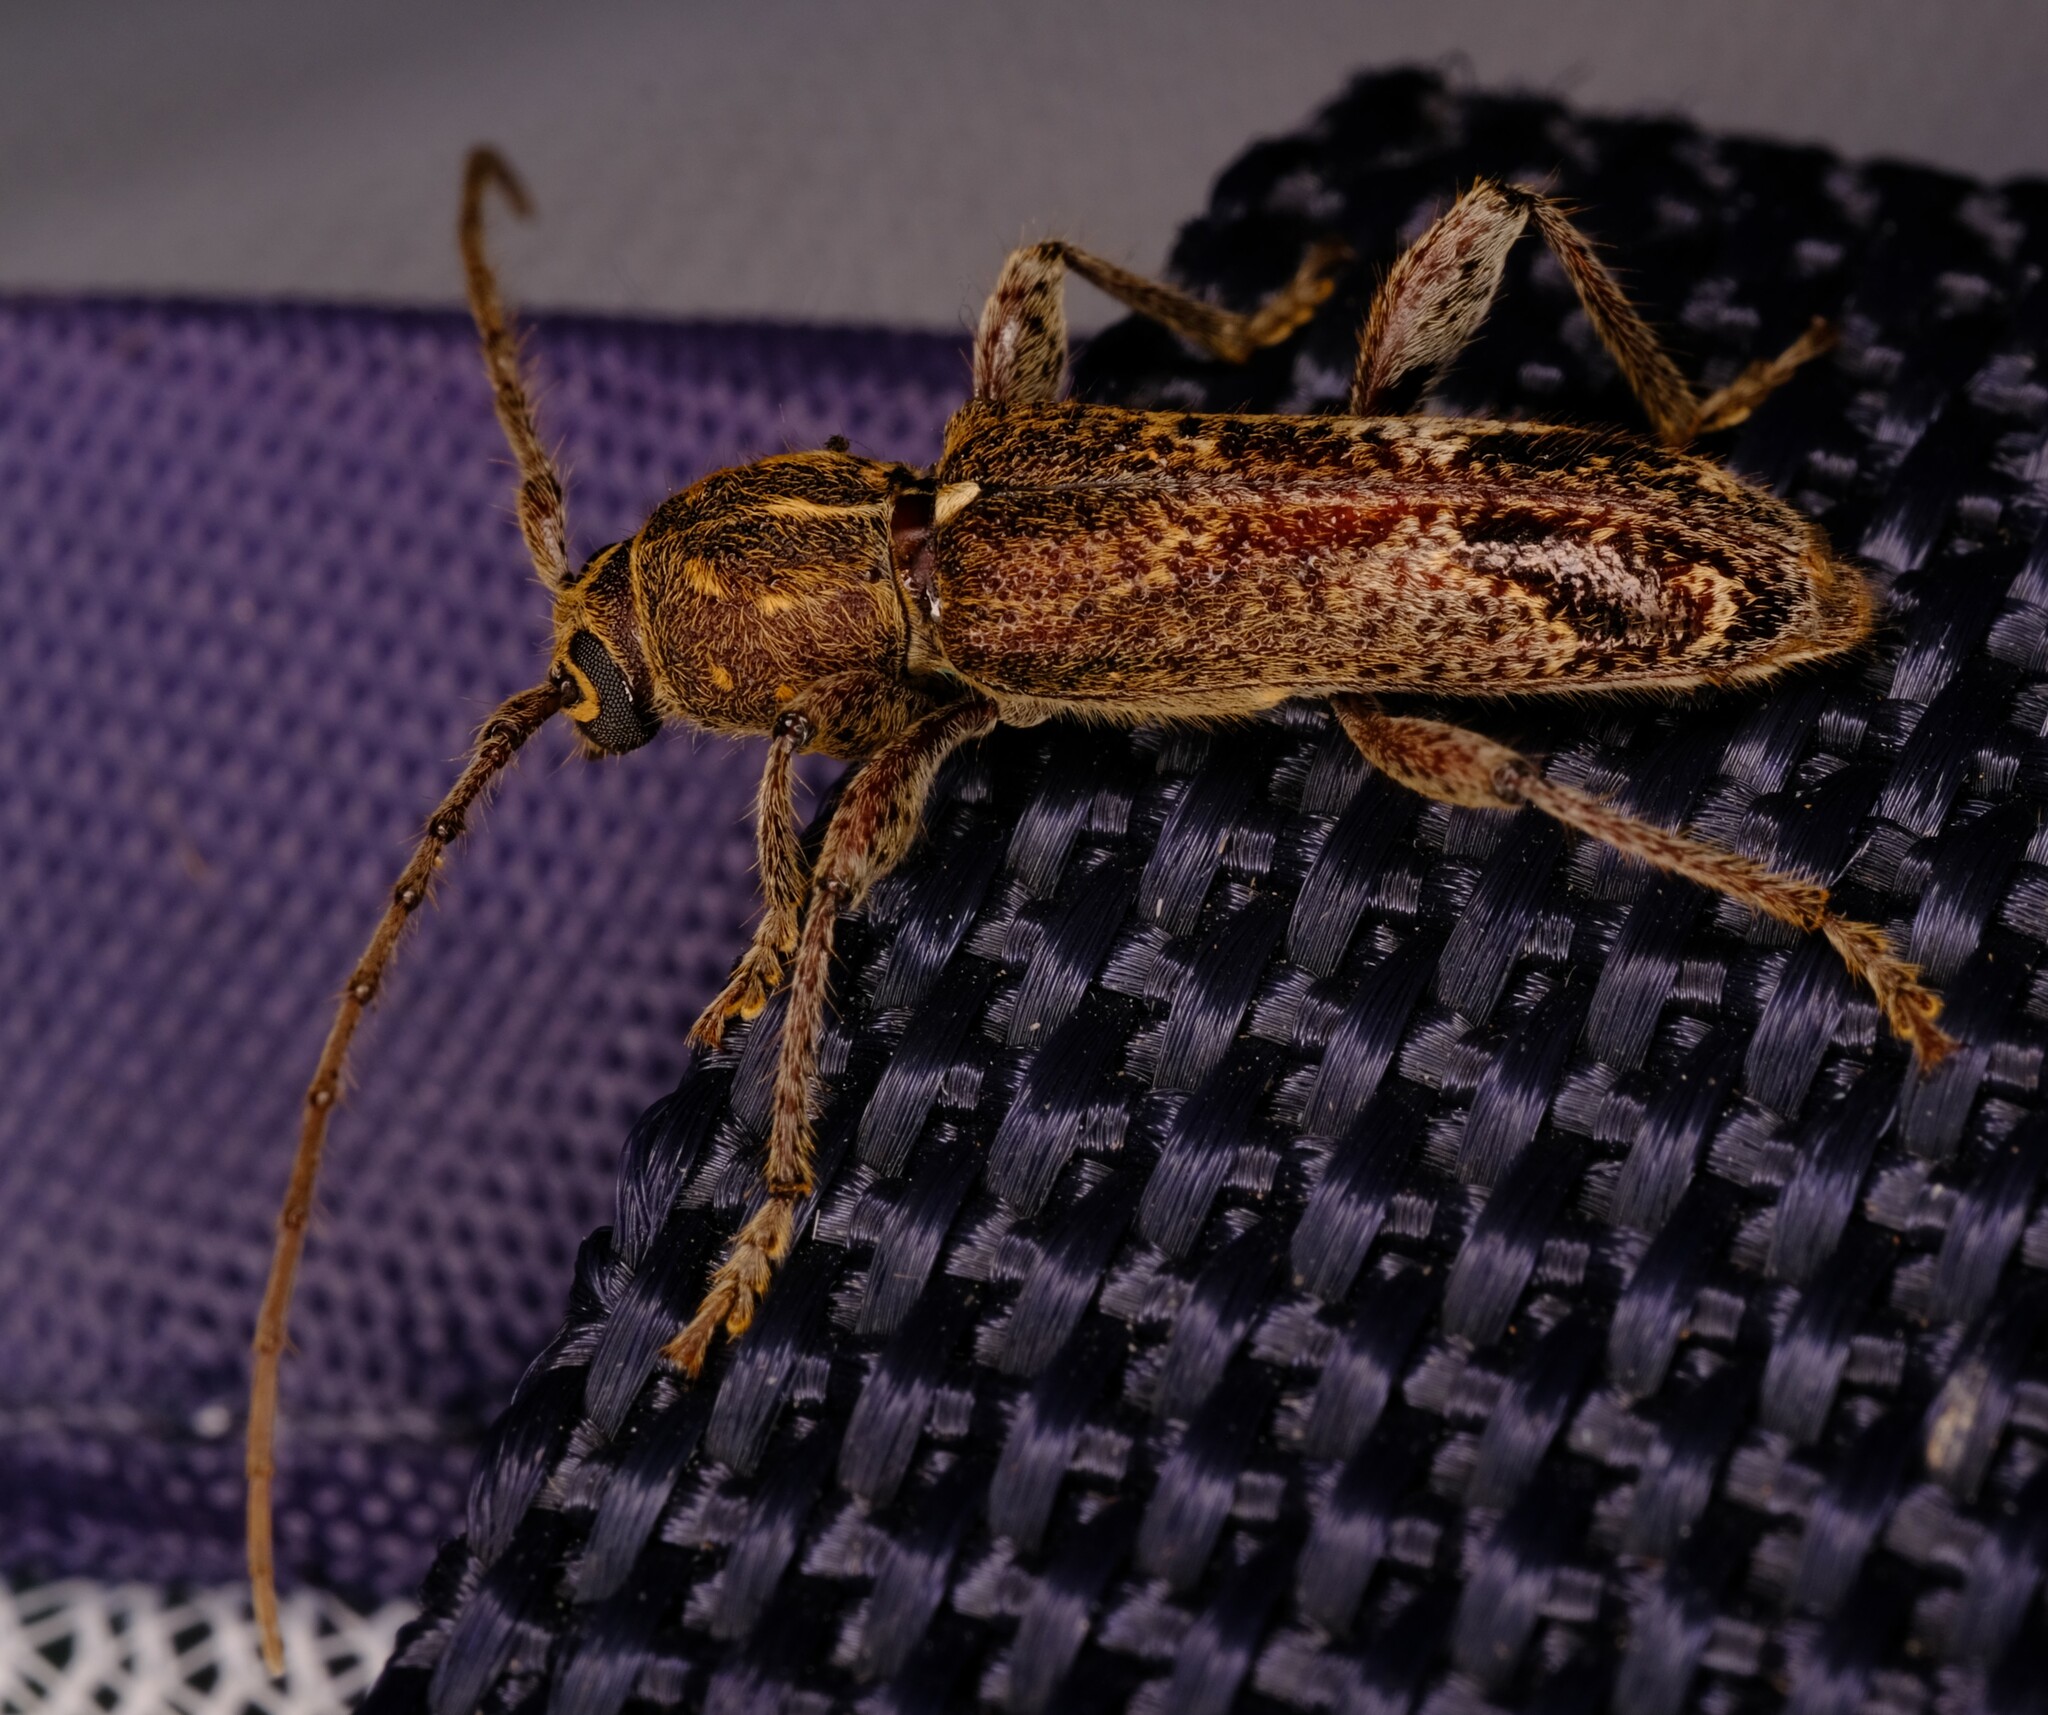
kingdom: Animalia
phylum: Arthropoda
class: Insecta
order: Coleoptera
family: Cerambycidae
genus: Phacodes
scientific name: Phacodes personatus
